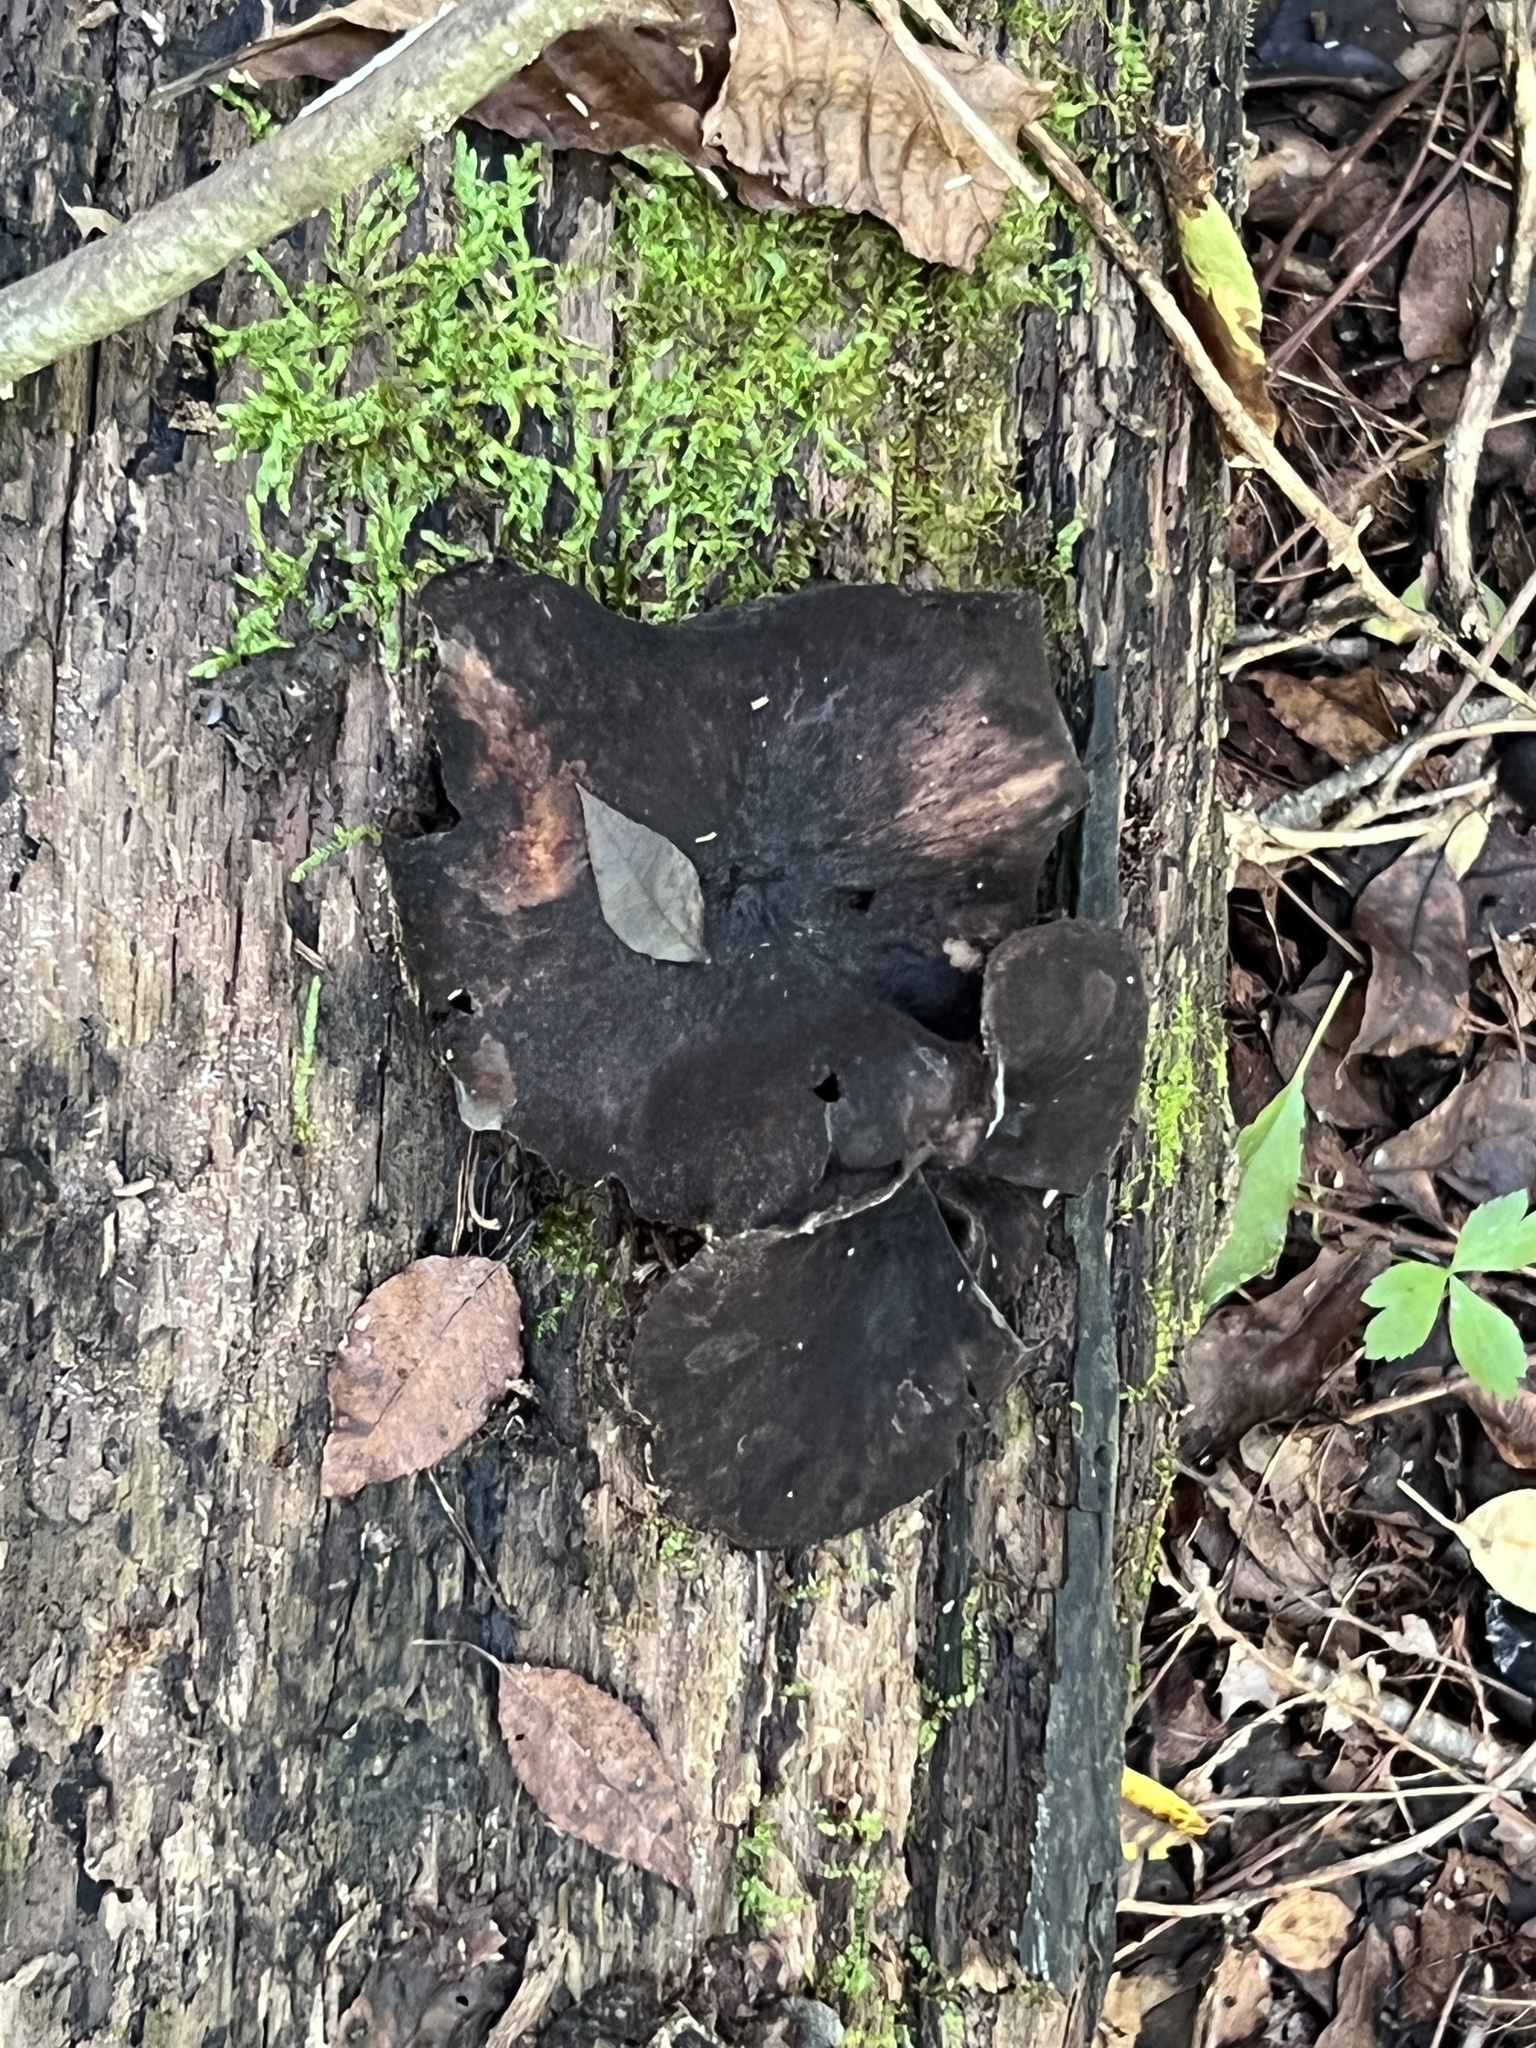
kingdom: Fungi
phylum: Basidiomycota
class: Agaricomycetes
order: Polyporales
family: Polyporaceae
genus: Picipes
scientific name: Picipes badius
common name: Bay polypore
